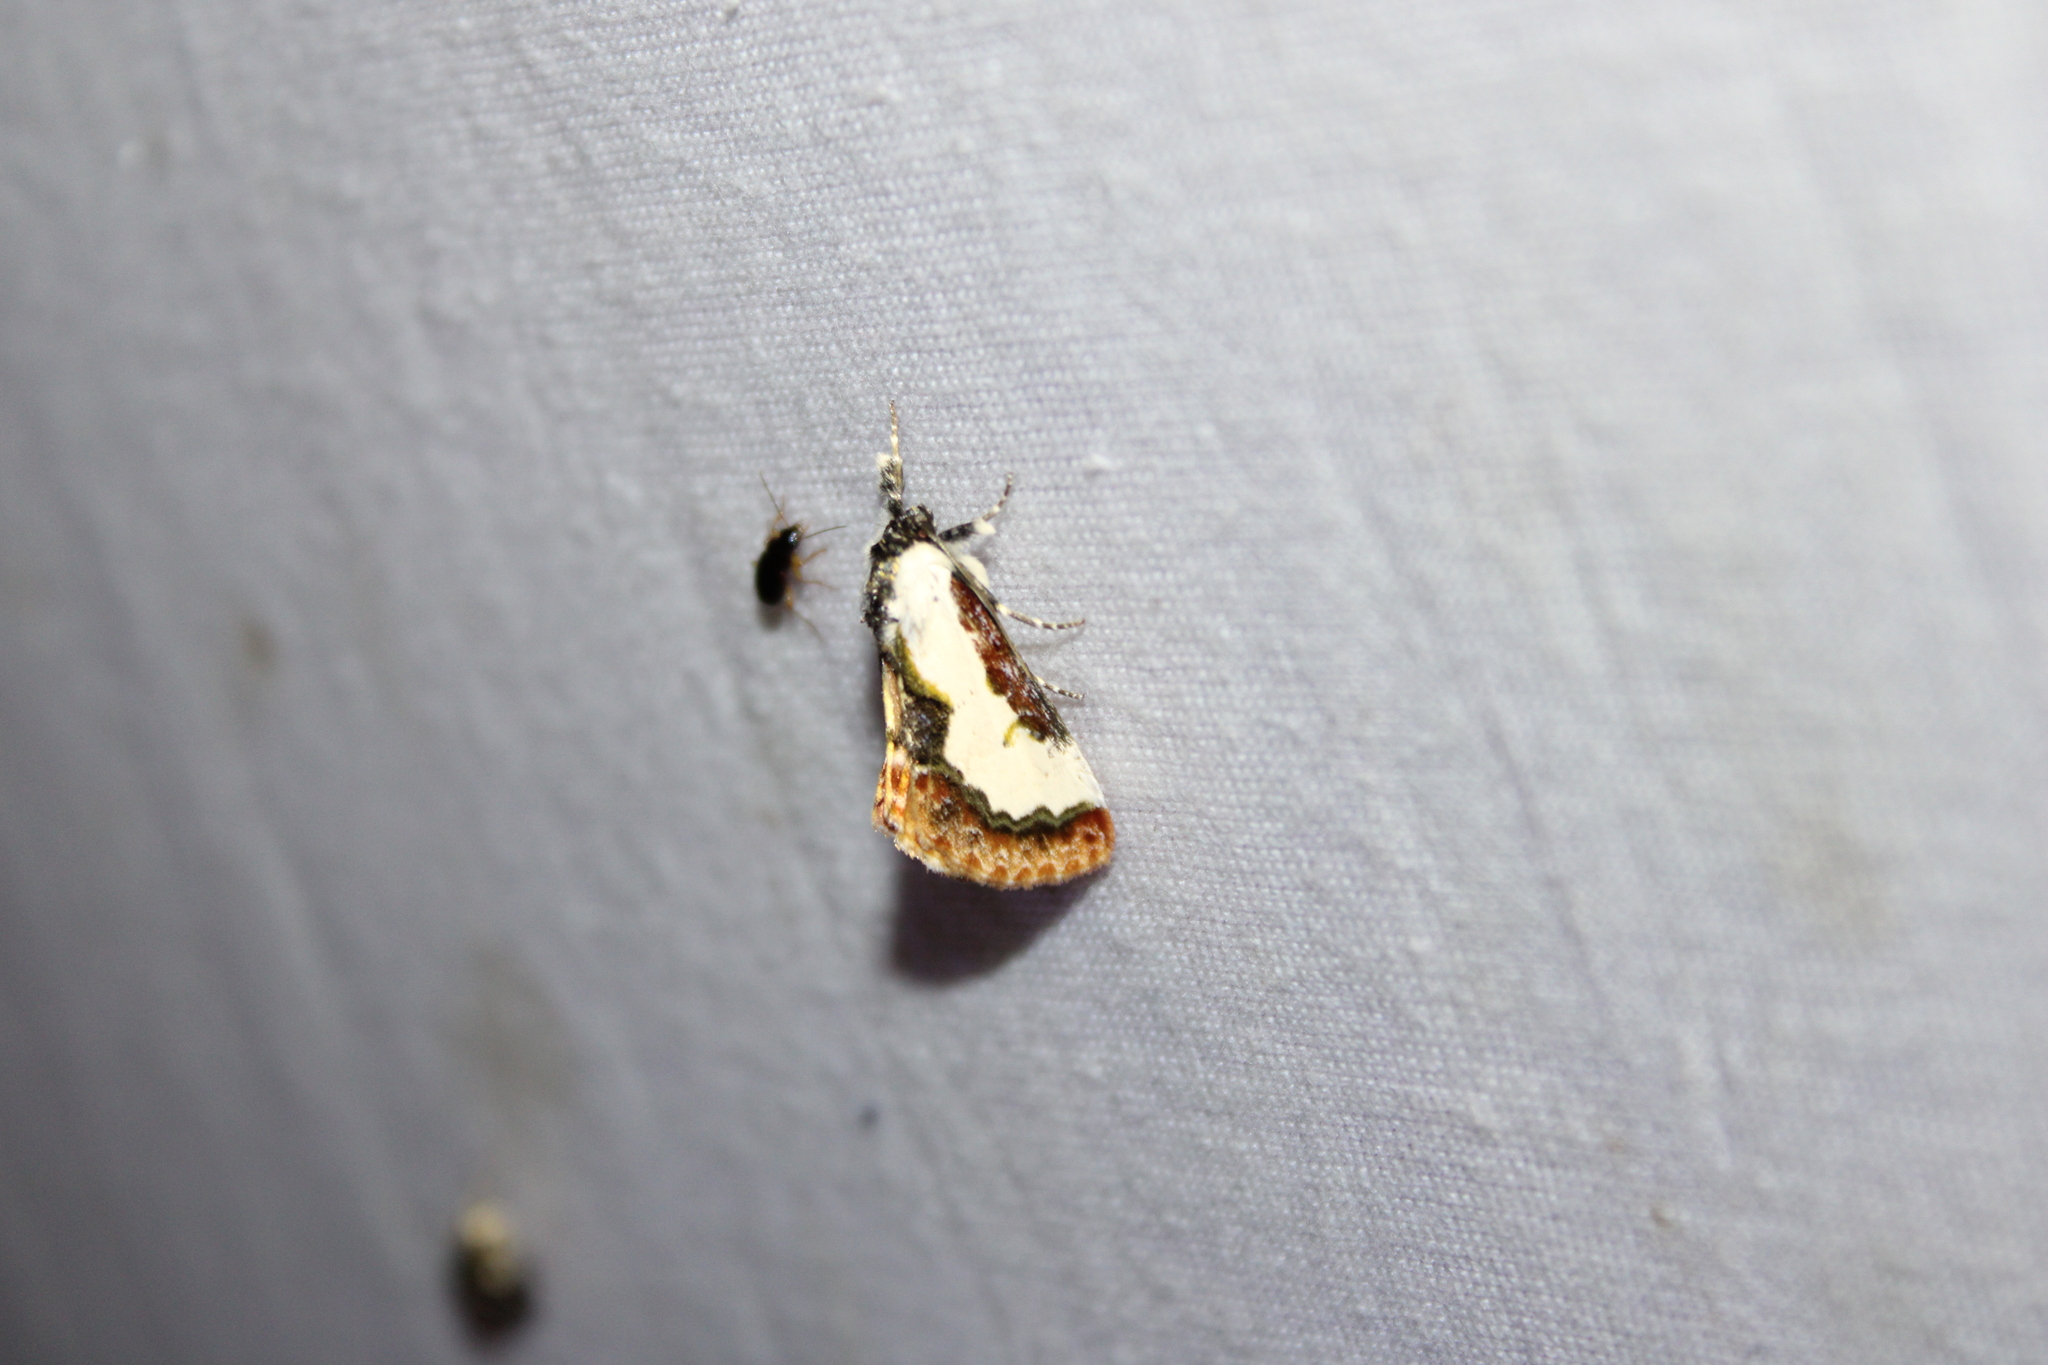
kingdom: Animalia
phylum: Arthropoda
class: Insecta
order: Lepidoptera
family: Noctuidae
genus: Eudryas
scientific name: Eudryas unio
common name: Pearly wood-nymph
